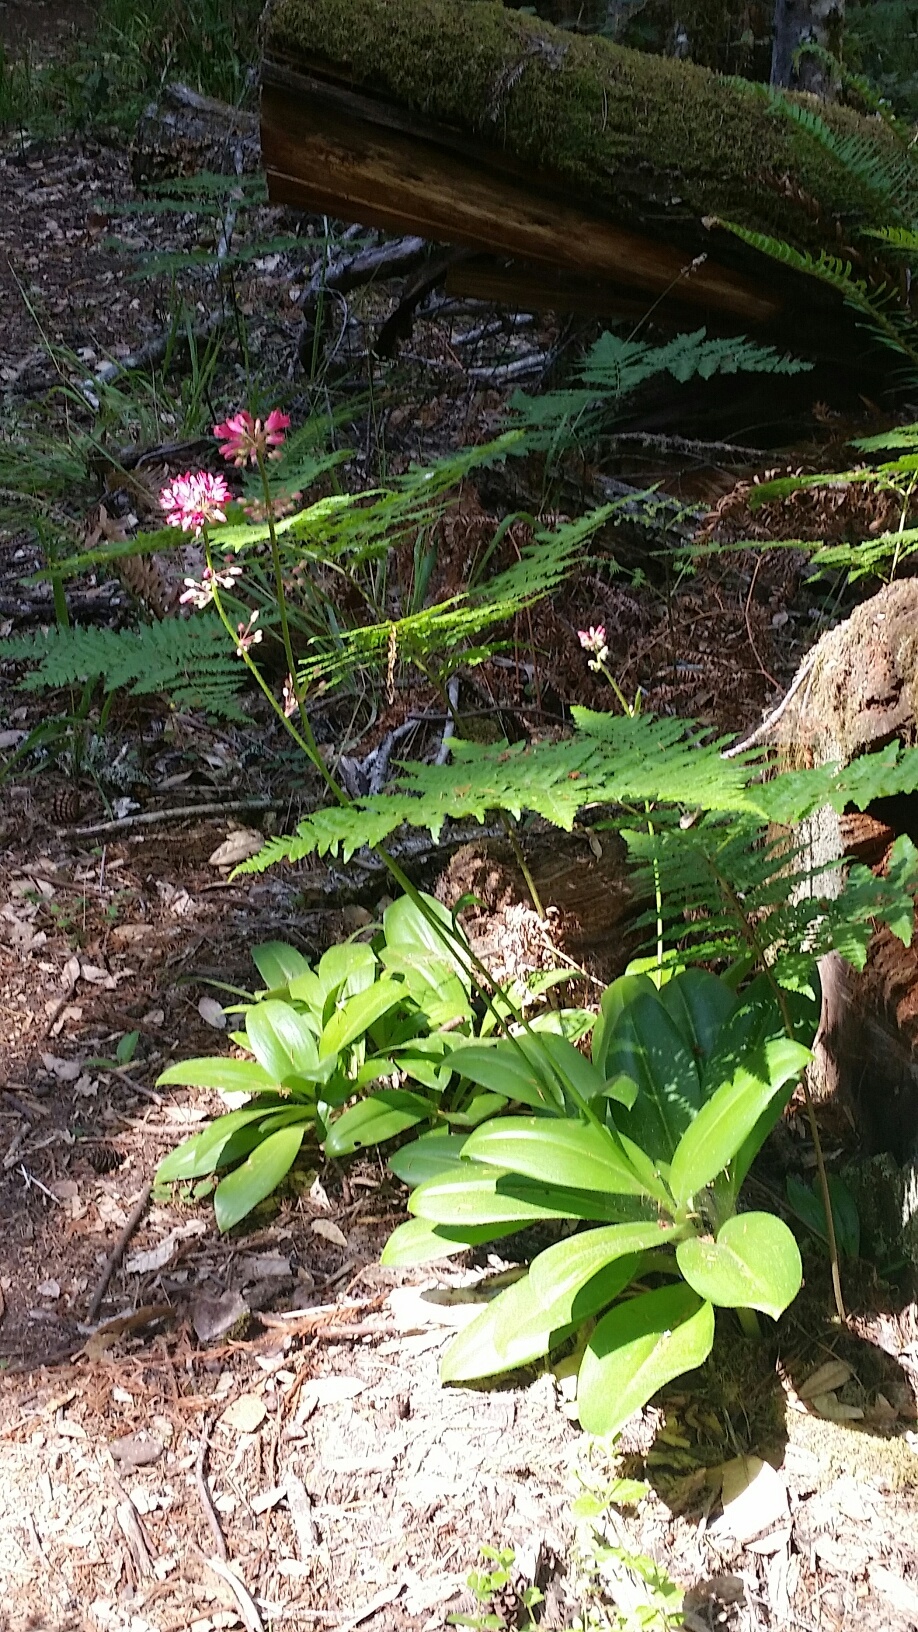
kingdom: Plantae
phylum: Tracheophyta
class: Liliopsida
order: Liliales
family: Liliaceae
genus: Clintonia
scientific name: Clintonia andrewsiana
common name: Red clintonia
